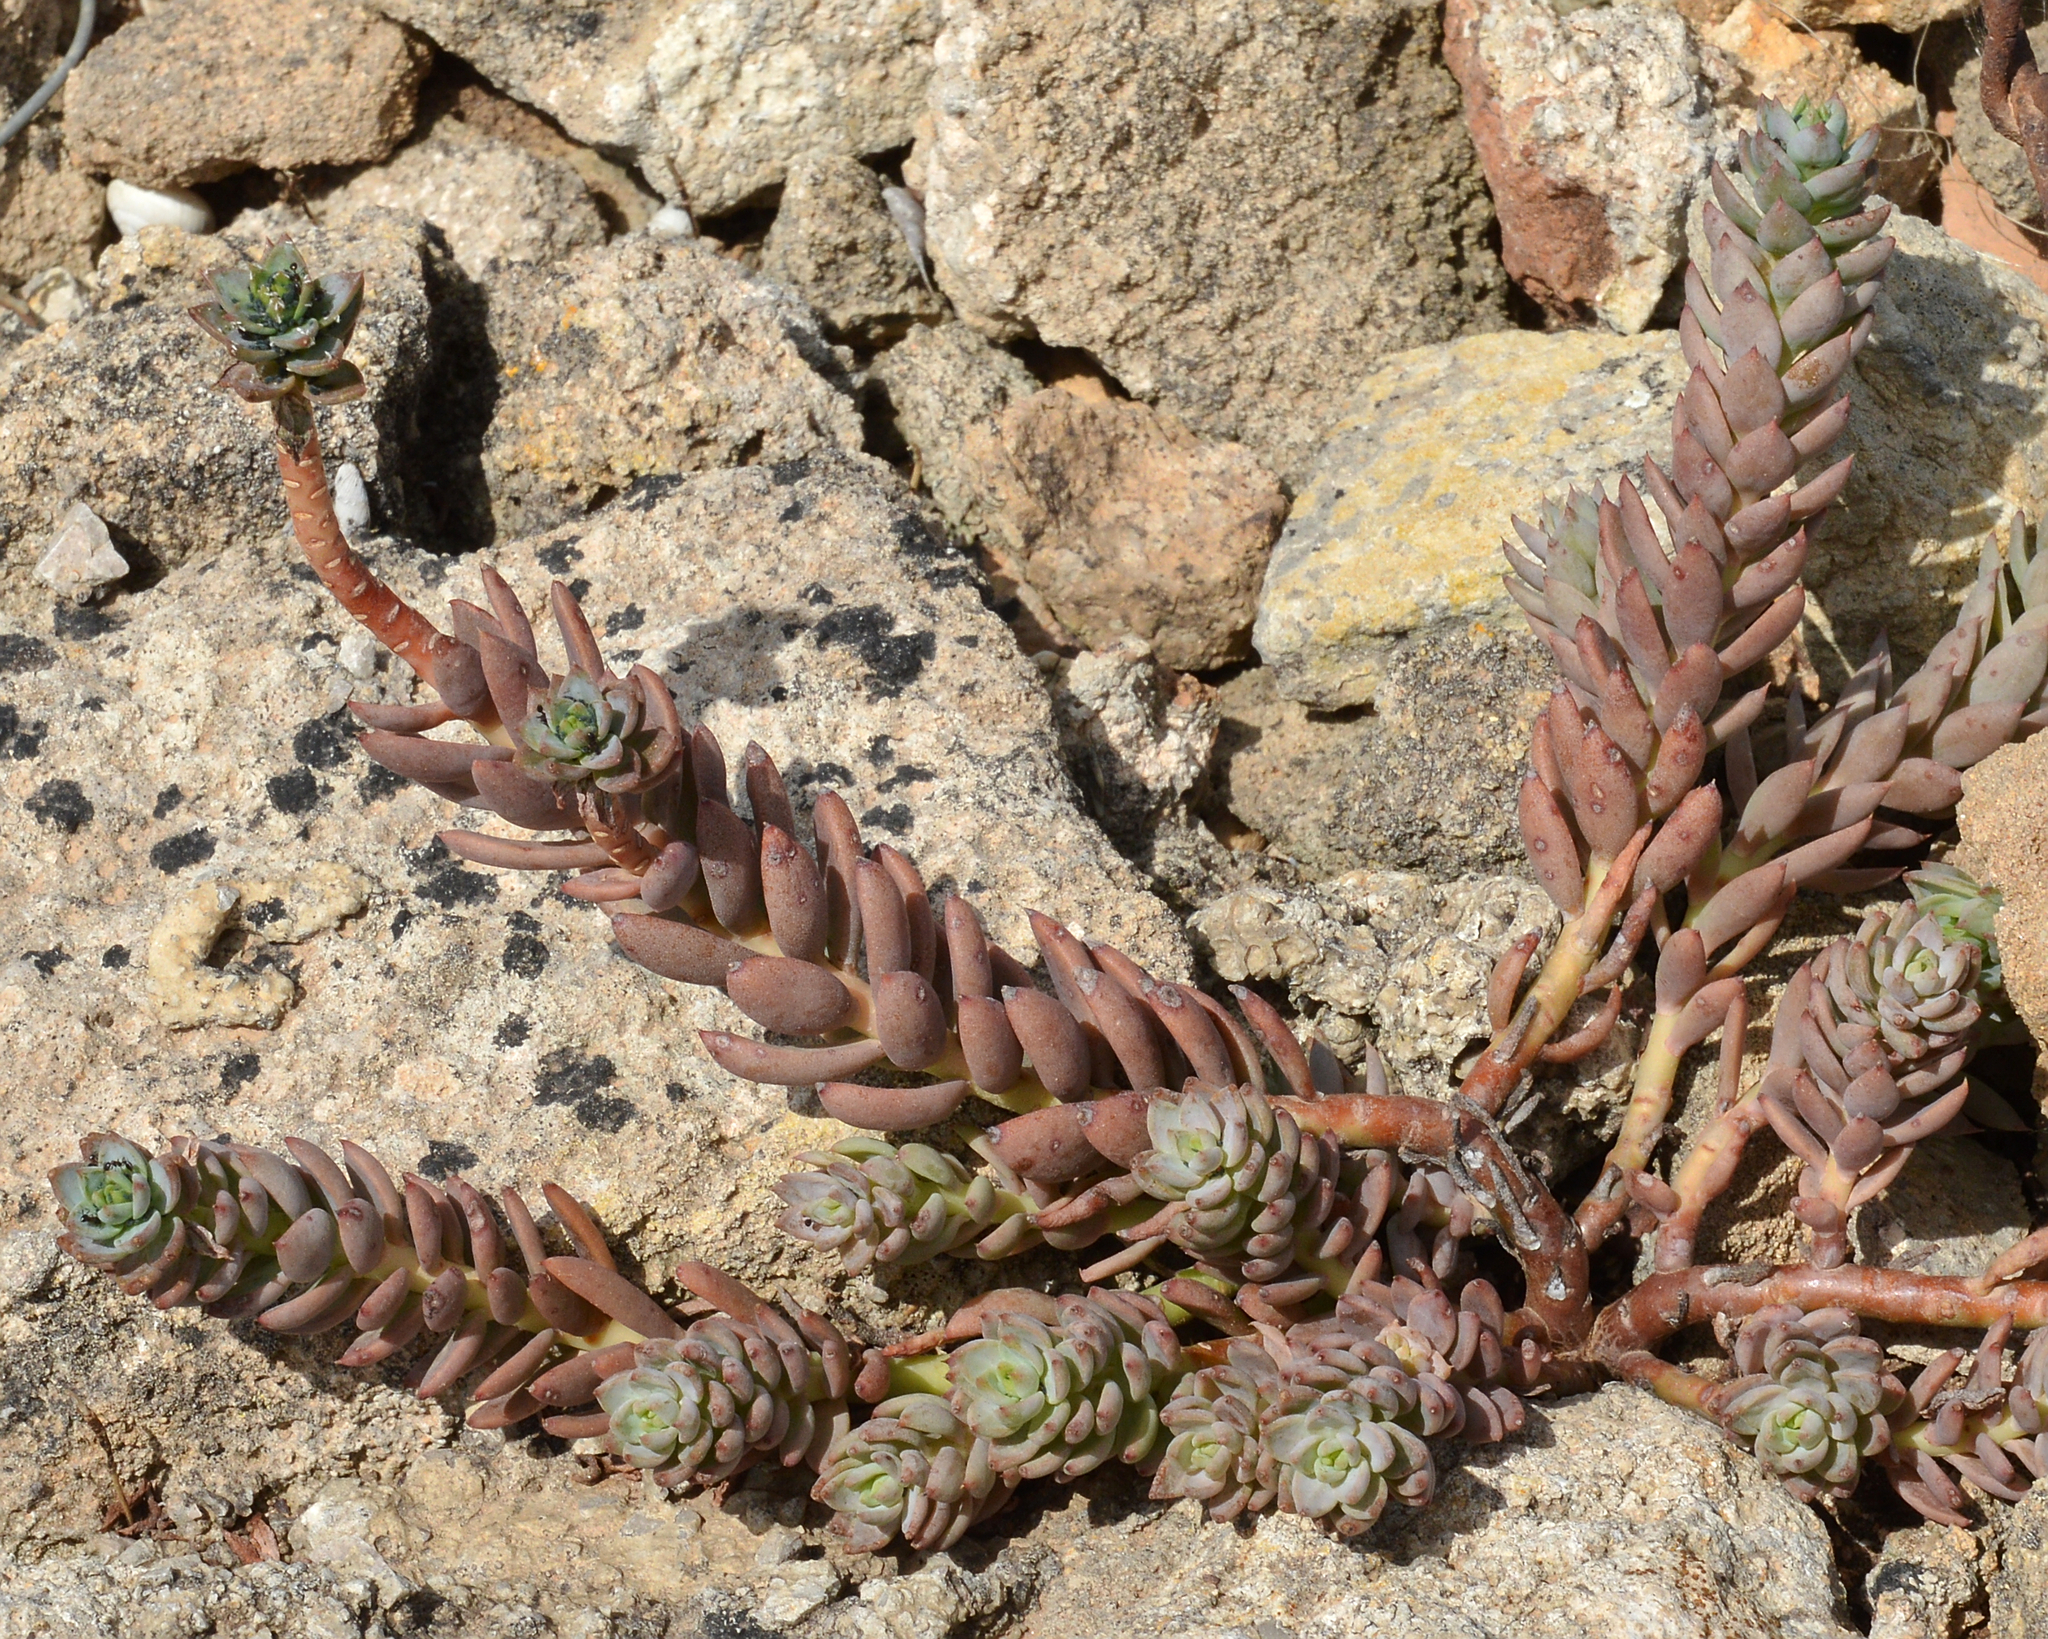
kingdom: Plantae
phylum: Tracheophyta
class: Magnoliopsida
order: Saxifragales
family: Crassulaceae
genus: Petrosedum
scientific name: Petrosedum sediforme
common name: Pale stonecrop
